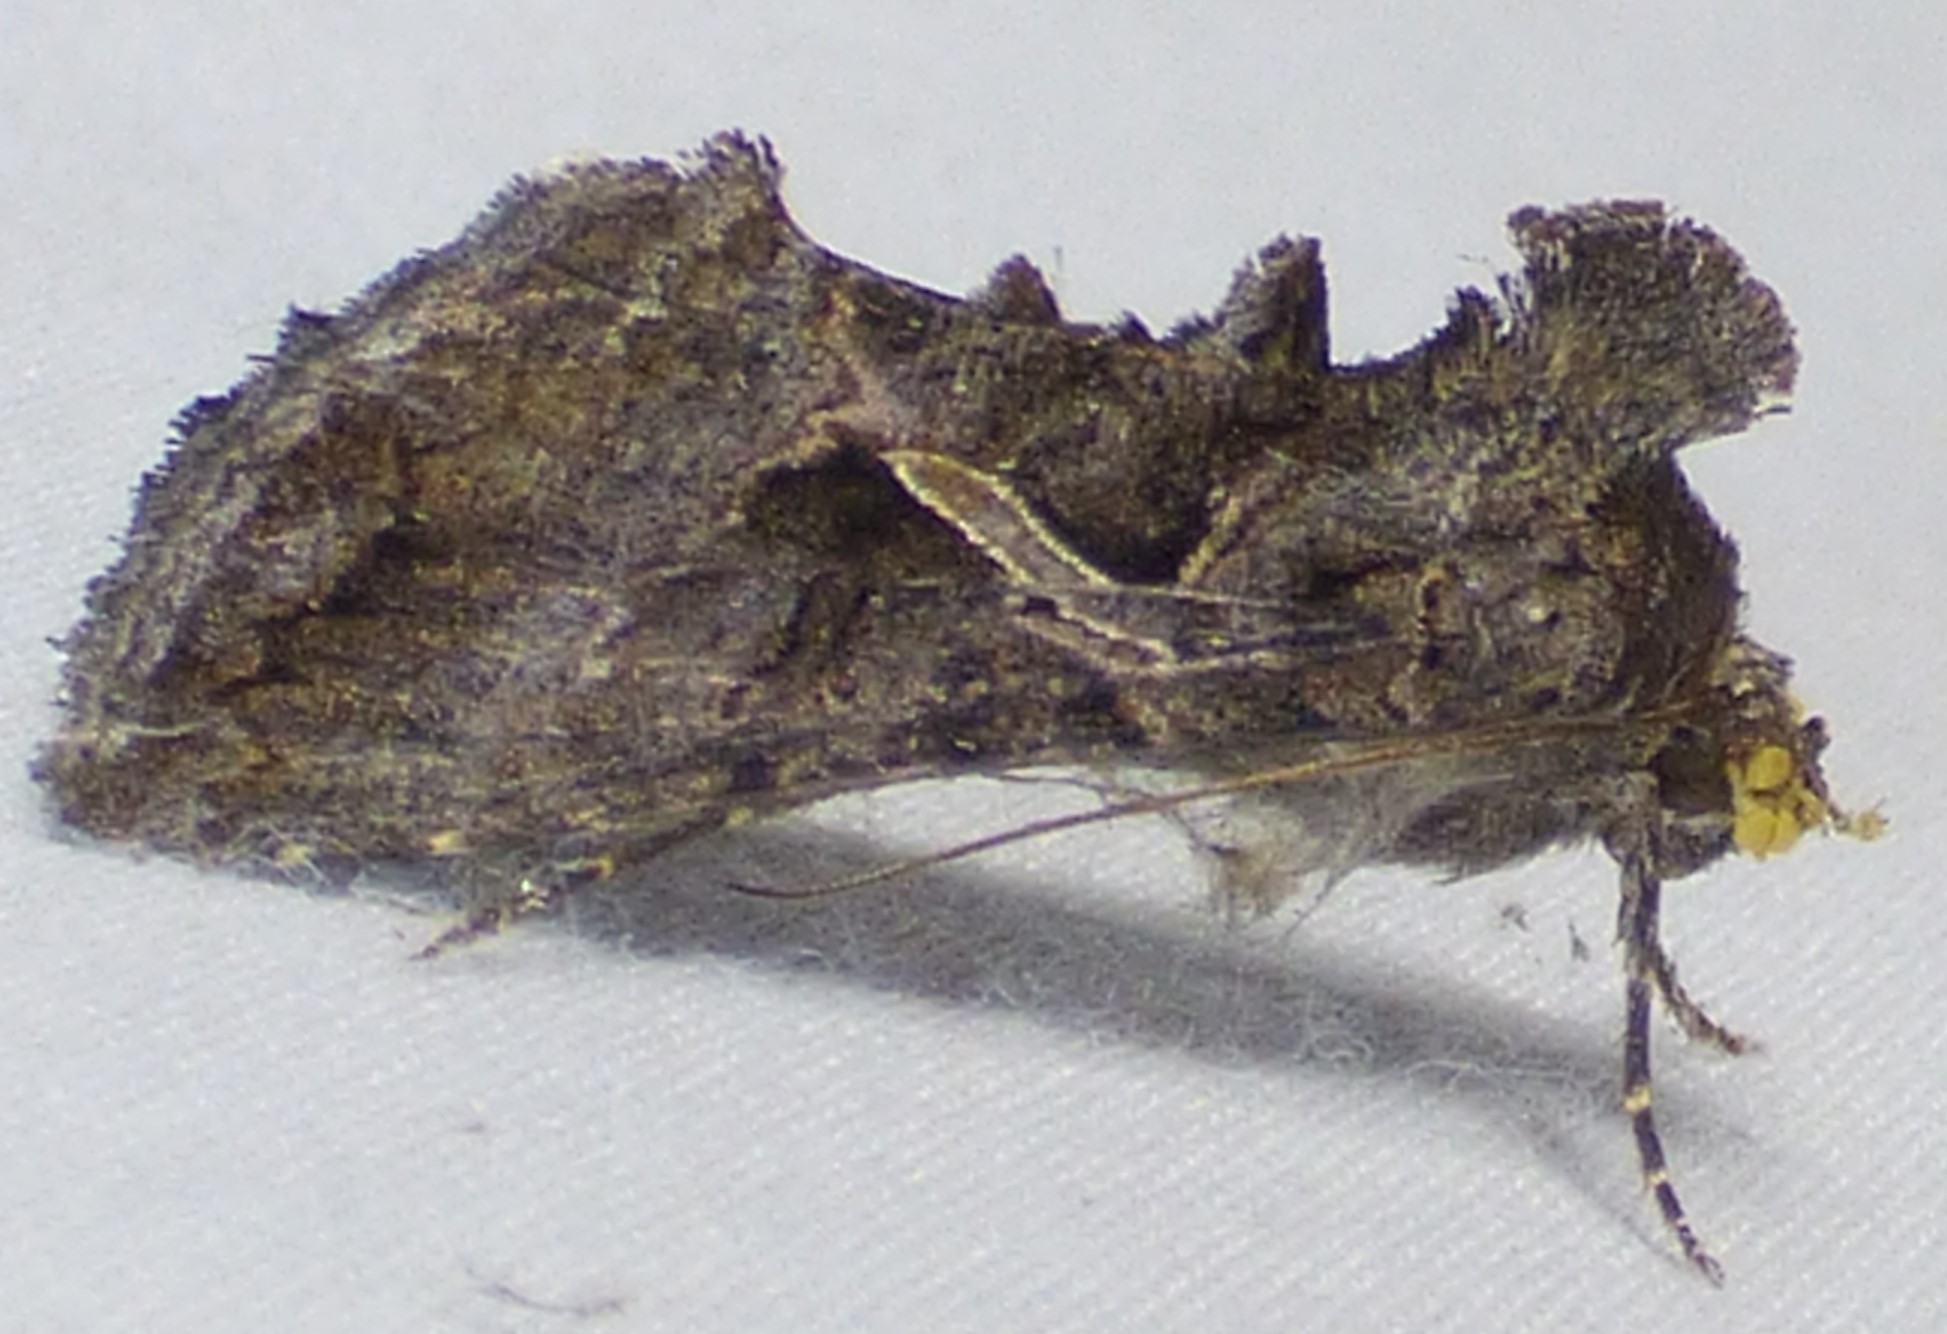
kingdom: Animalia
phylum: Arthropoda
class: Insecta
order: Lepidoptera
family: Noctuidae
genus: Ctenoplusia
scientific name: Ctenoplusia oxygramma
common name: Sharp-stigma looper moth
